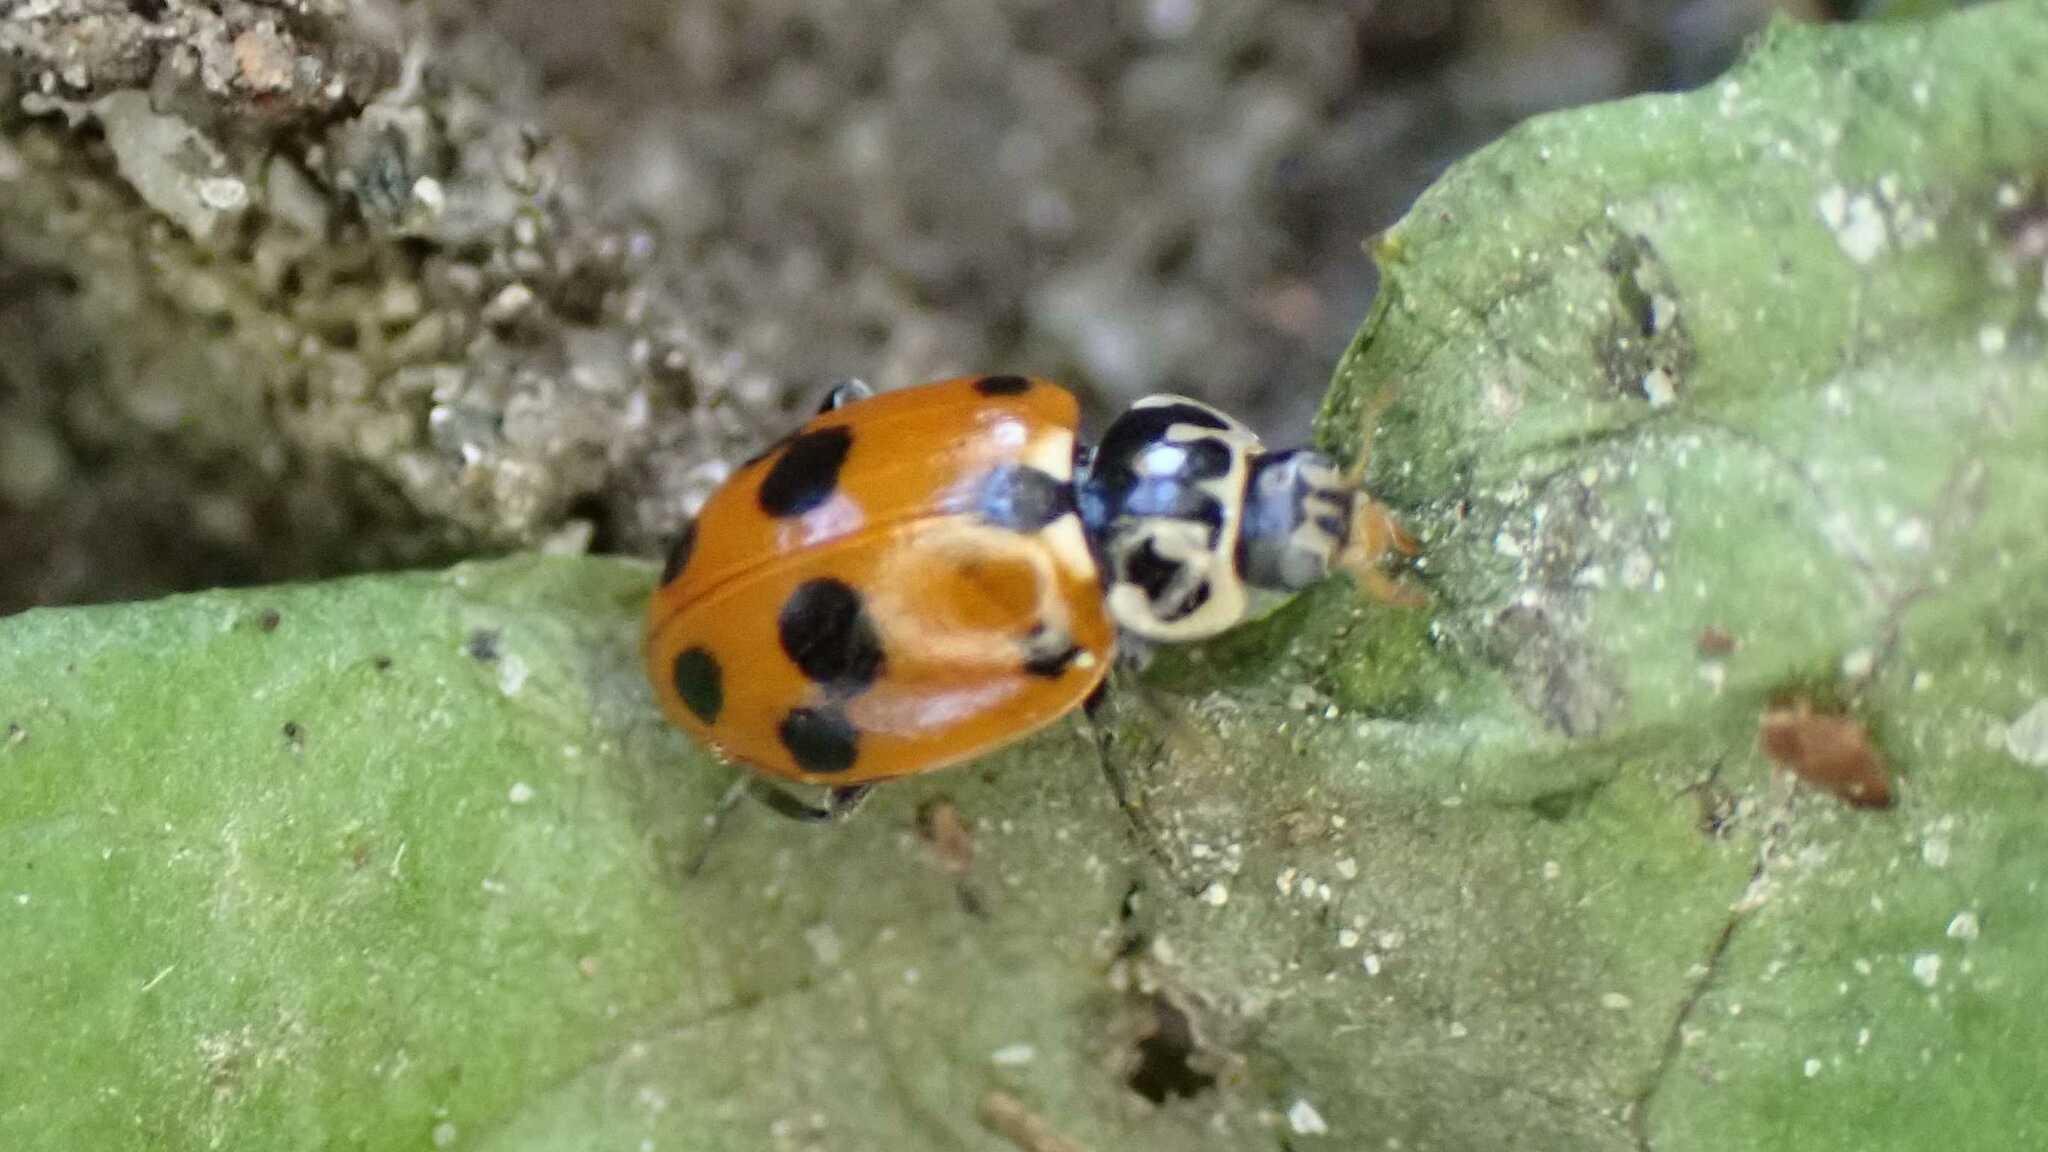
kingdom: Animalia
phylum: Arthropoda
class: Insecta
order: Coleoptera
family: Coccinellidae
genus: Hippodamia
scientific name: Hippodamia variegata
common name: Ladybird beetle
